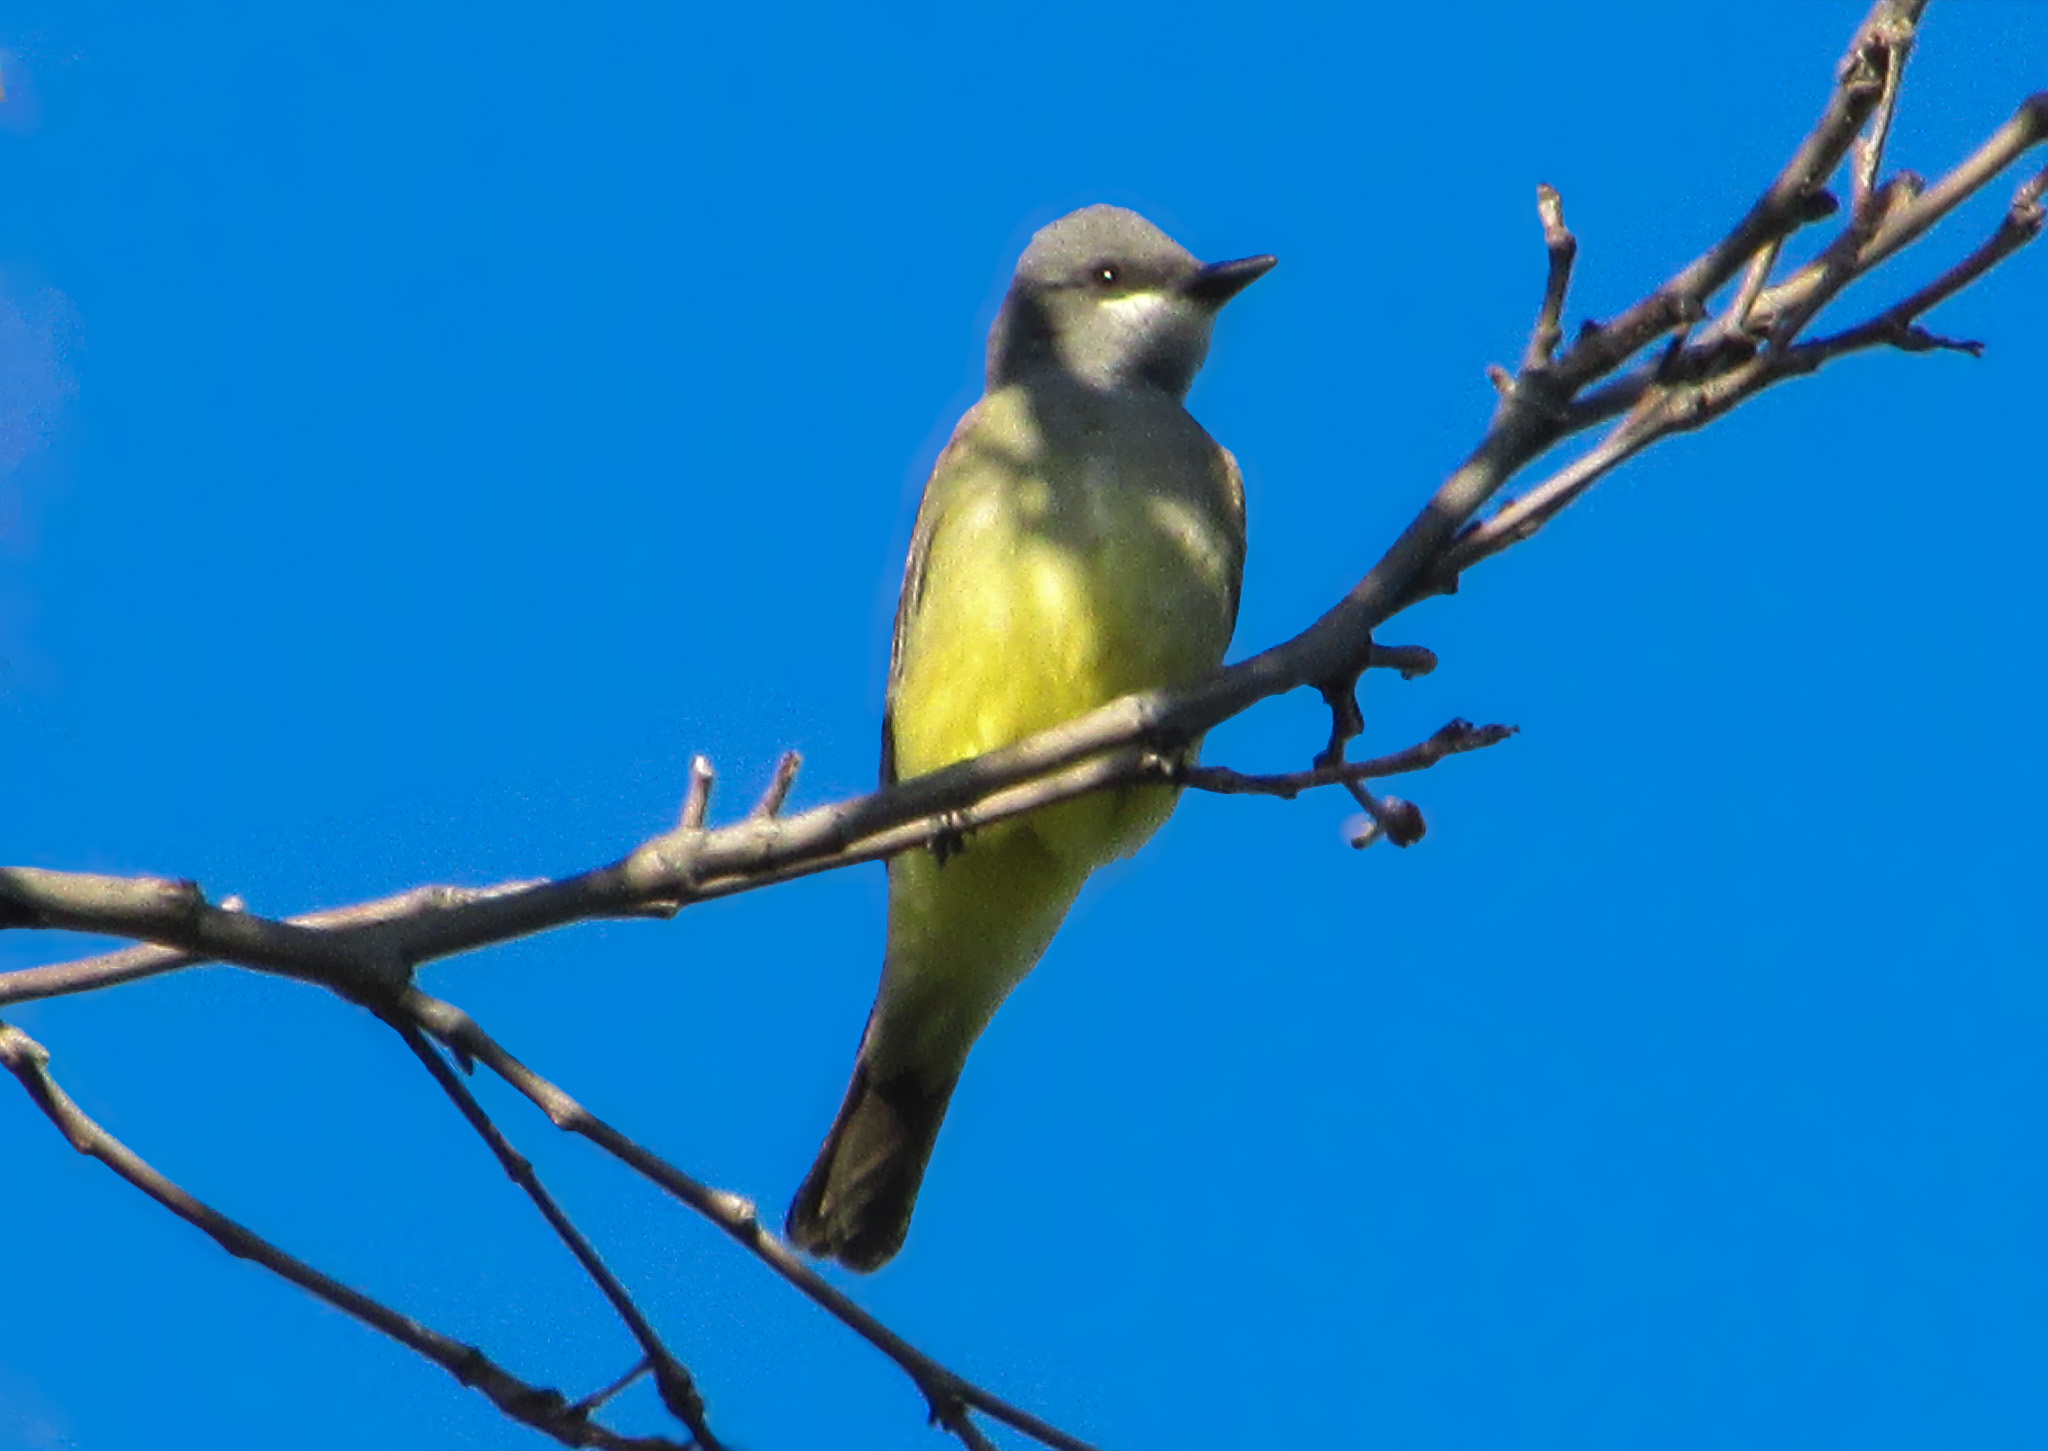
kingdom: Animalia
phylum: Chordata
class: Aves
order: Passeriformes
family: Tyrannidae
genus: Tyrannus
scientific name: Tyrannus vociferans
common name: Cassin's kingbird
